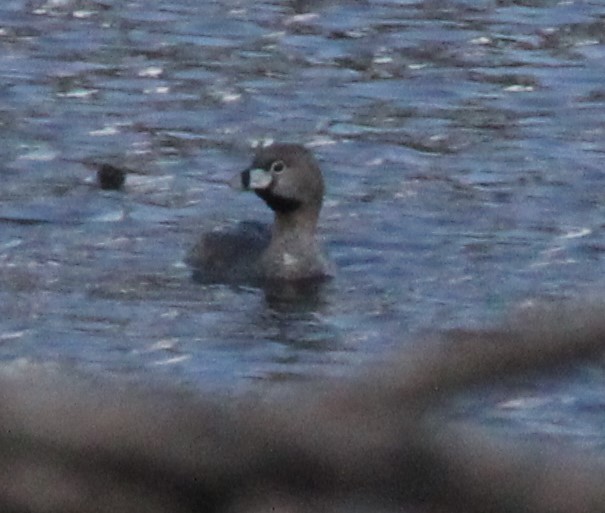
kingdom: Animalia
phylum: Chordata
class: Aves
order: Podicipediformes
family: Podicipedidae
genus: Podilymbus
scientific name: Podilymbus podiceps
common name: Pied-billed grebe
